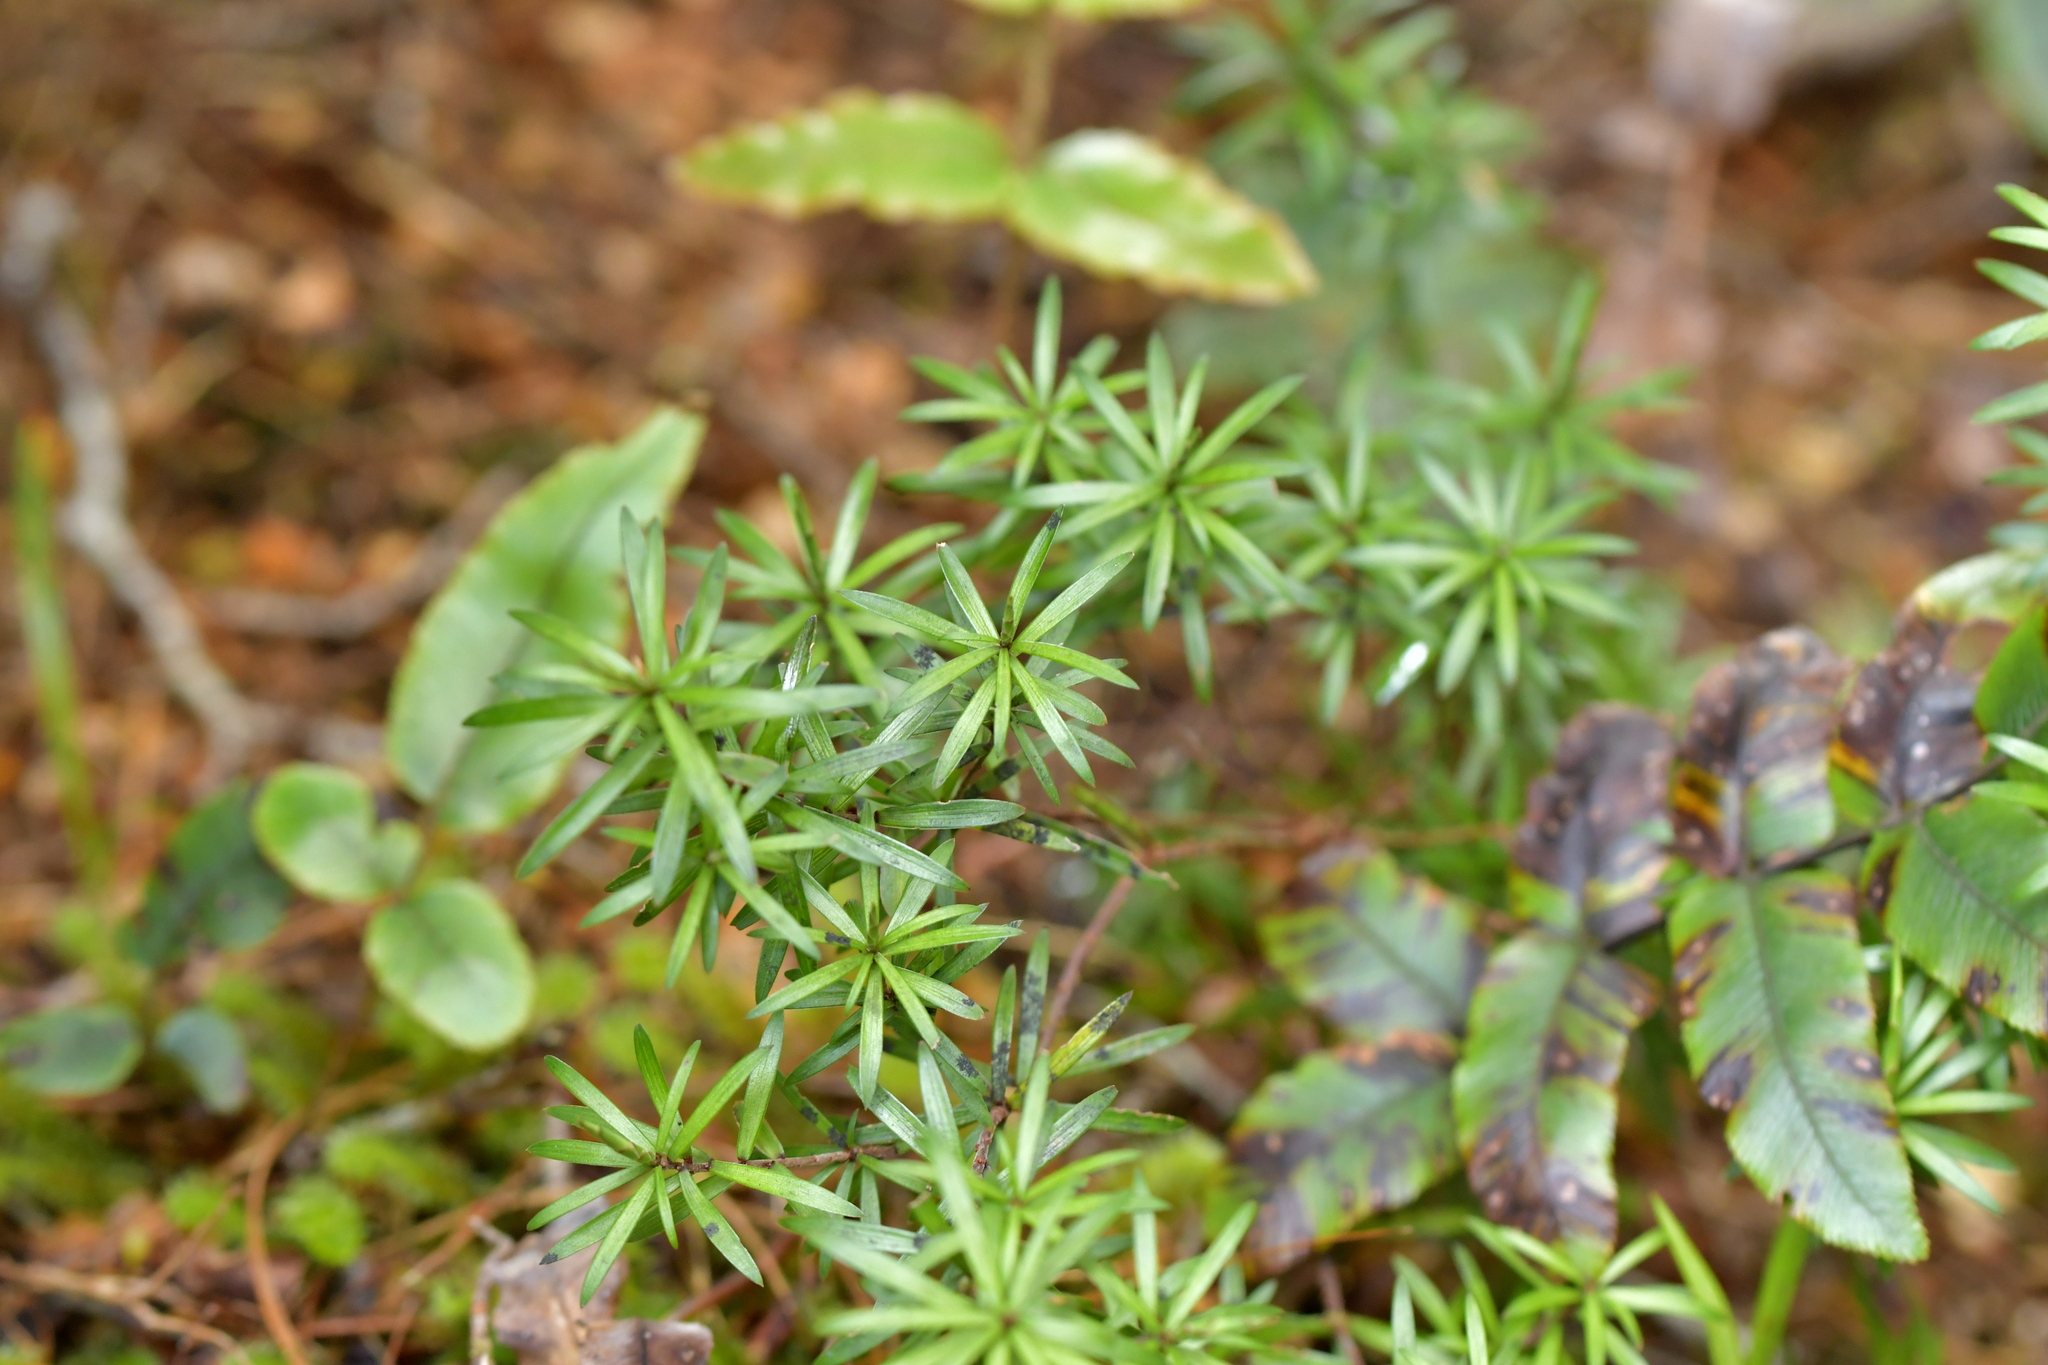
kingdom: Plantae
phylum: Tracheophyta
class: Magnoliopsida
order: Ericales
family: Ericaceae
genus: Leucopogon
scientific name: Leucopogon fasciculatus
